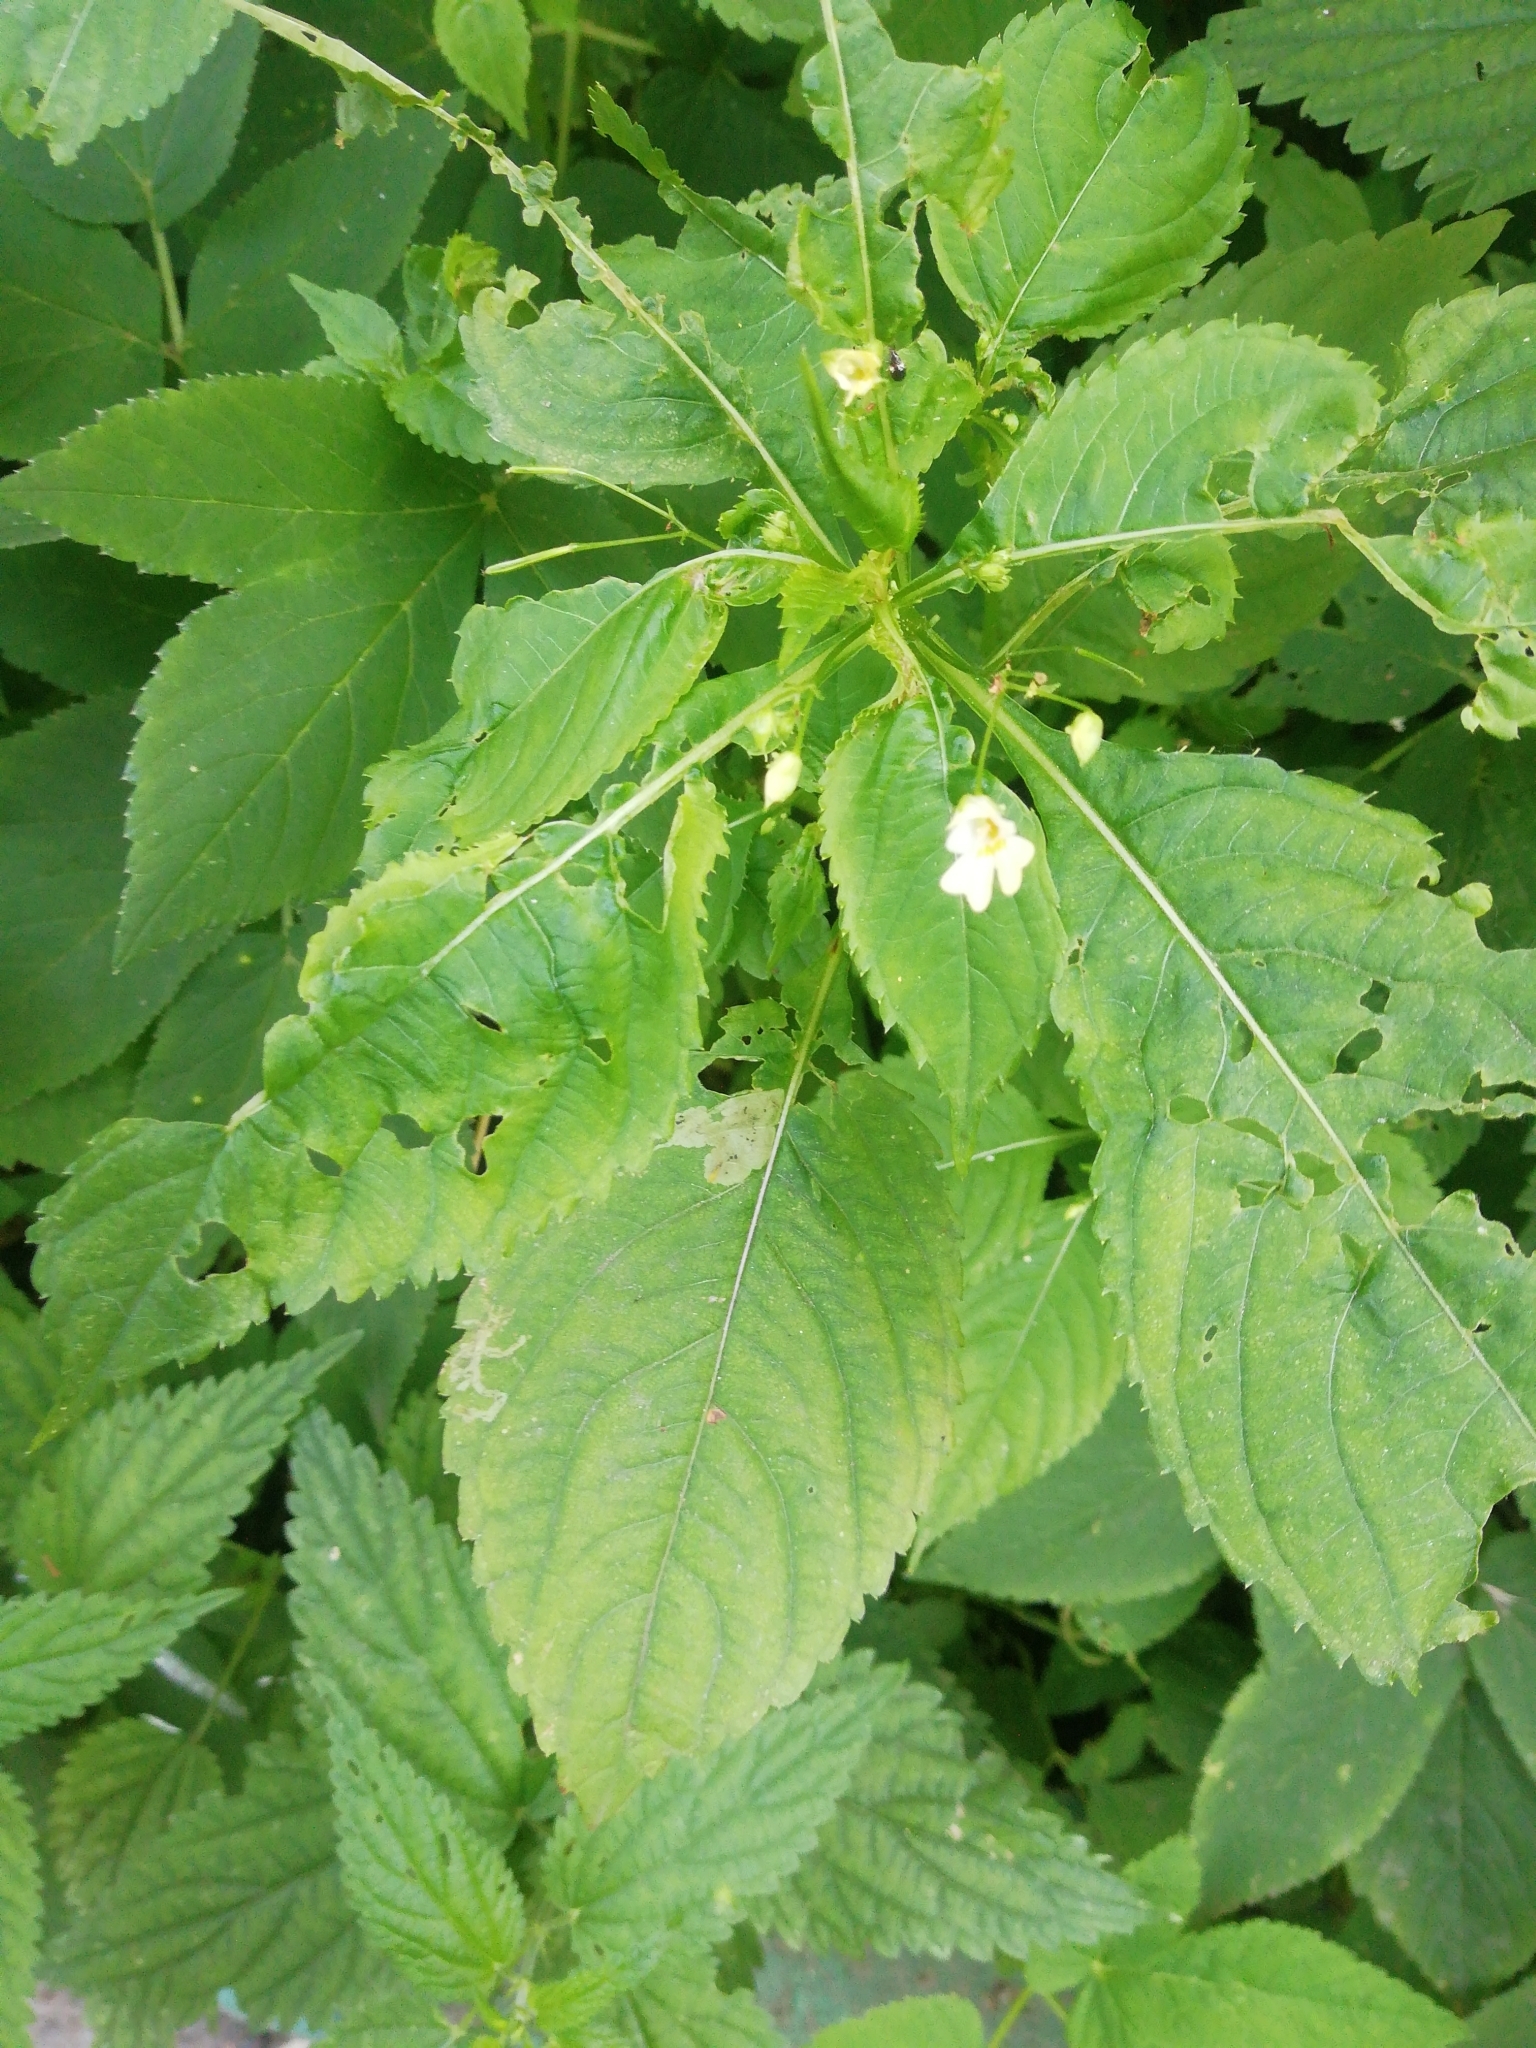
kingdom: Plantae
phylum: Tracheophyta
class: Magnoliopsida
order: Ericales
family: Balsaminaceae
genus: Impatiens
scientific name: Impatiens parviflora
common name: Small balsam
